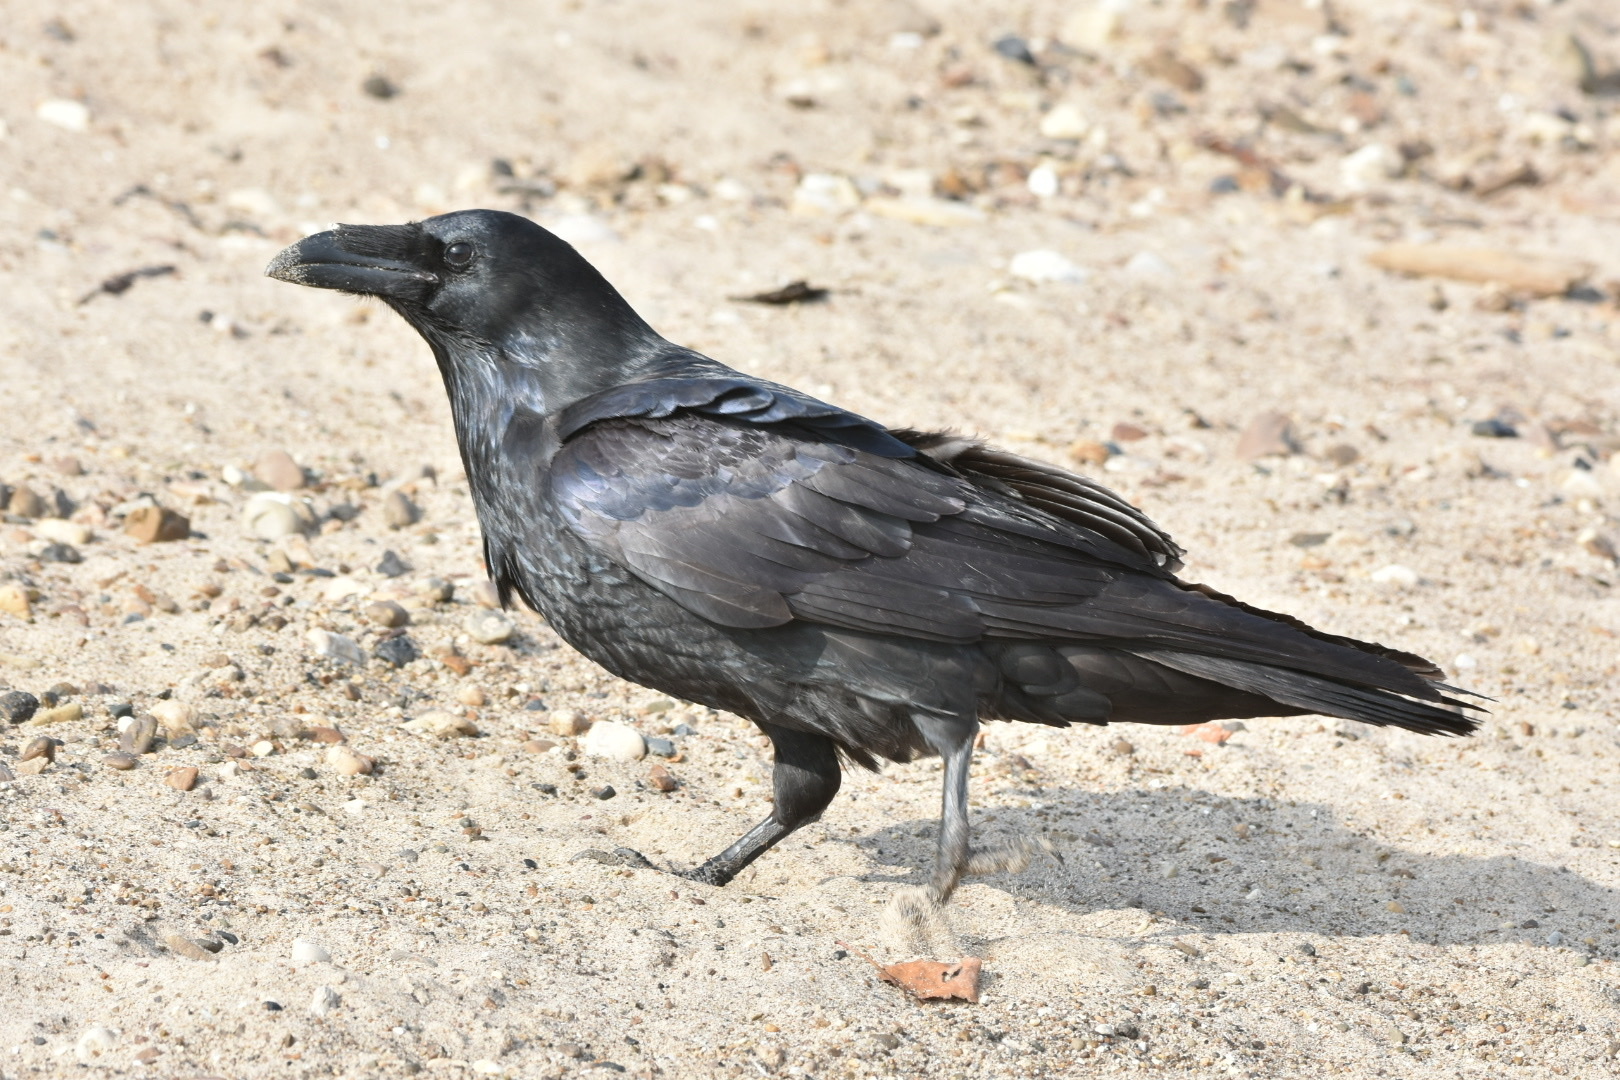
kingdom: Animalia
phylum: Chordata
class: Aves
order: Passeriformes
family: Corvidae
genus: Corvus
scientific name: Corvus corax
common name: Common raven
